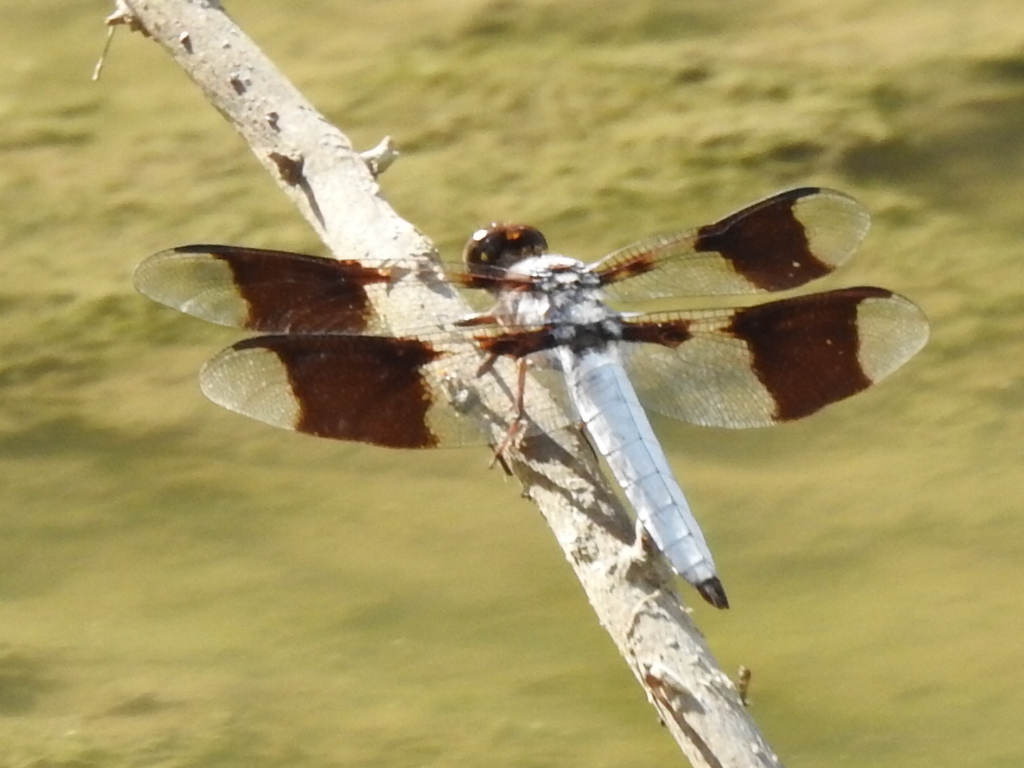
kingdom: Animalia
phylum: Arthropoda
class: Insecta
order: Odonata
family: Libellulidae
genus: Plathemis
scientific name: Plathemis lydia
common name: Common whitetail
